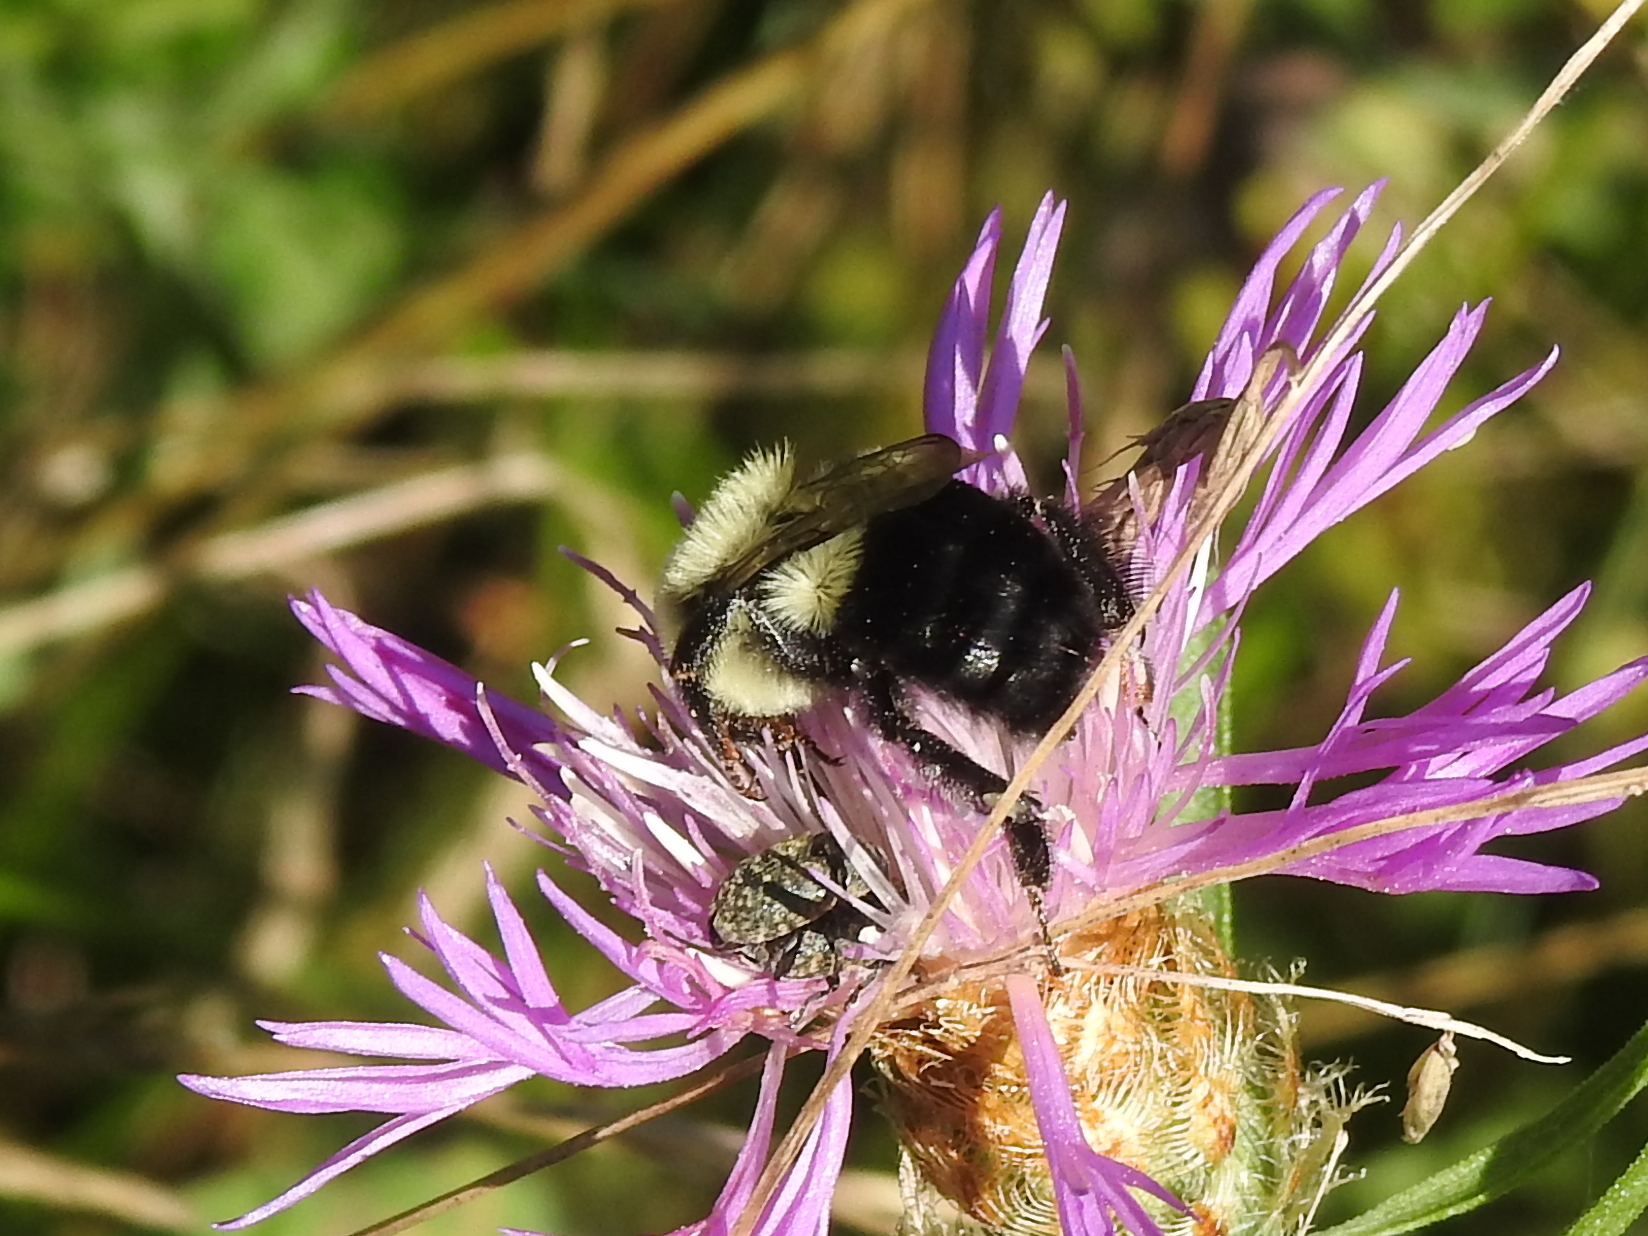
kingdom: Animalia
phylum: Arthropoda
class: Insecta
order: Hymenoptera
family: Apidae
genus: Bombus
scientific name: Bombus impatiens
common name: Common eastern bumble bee
